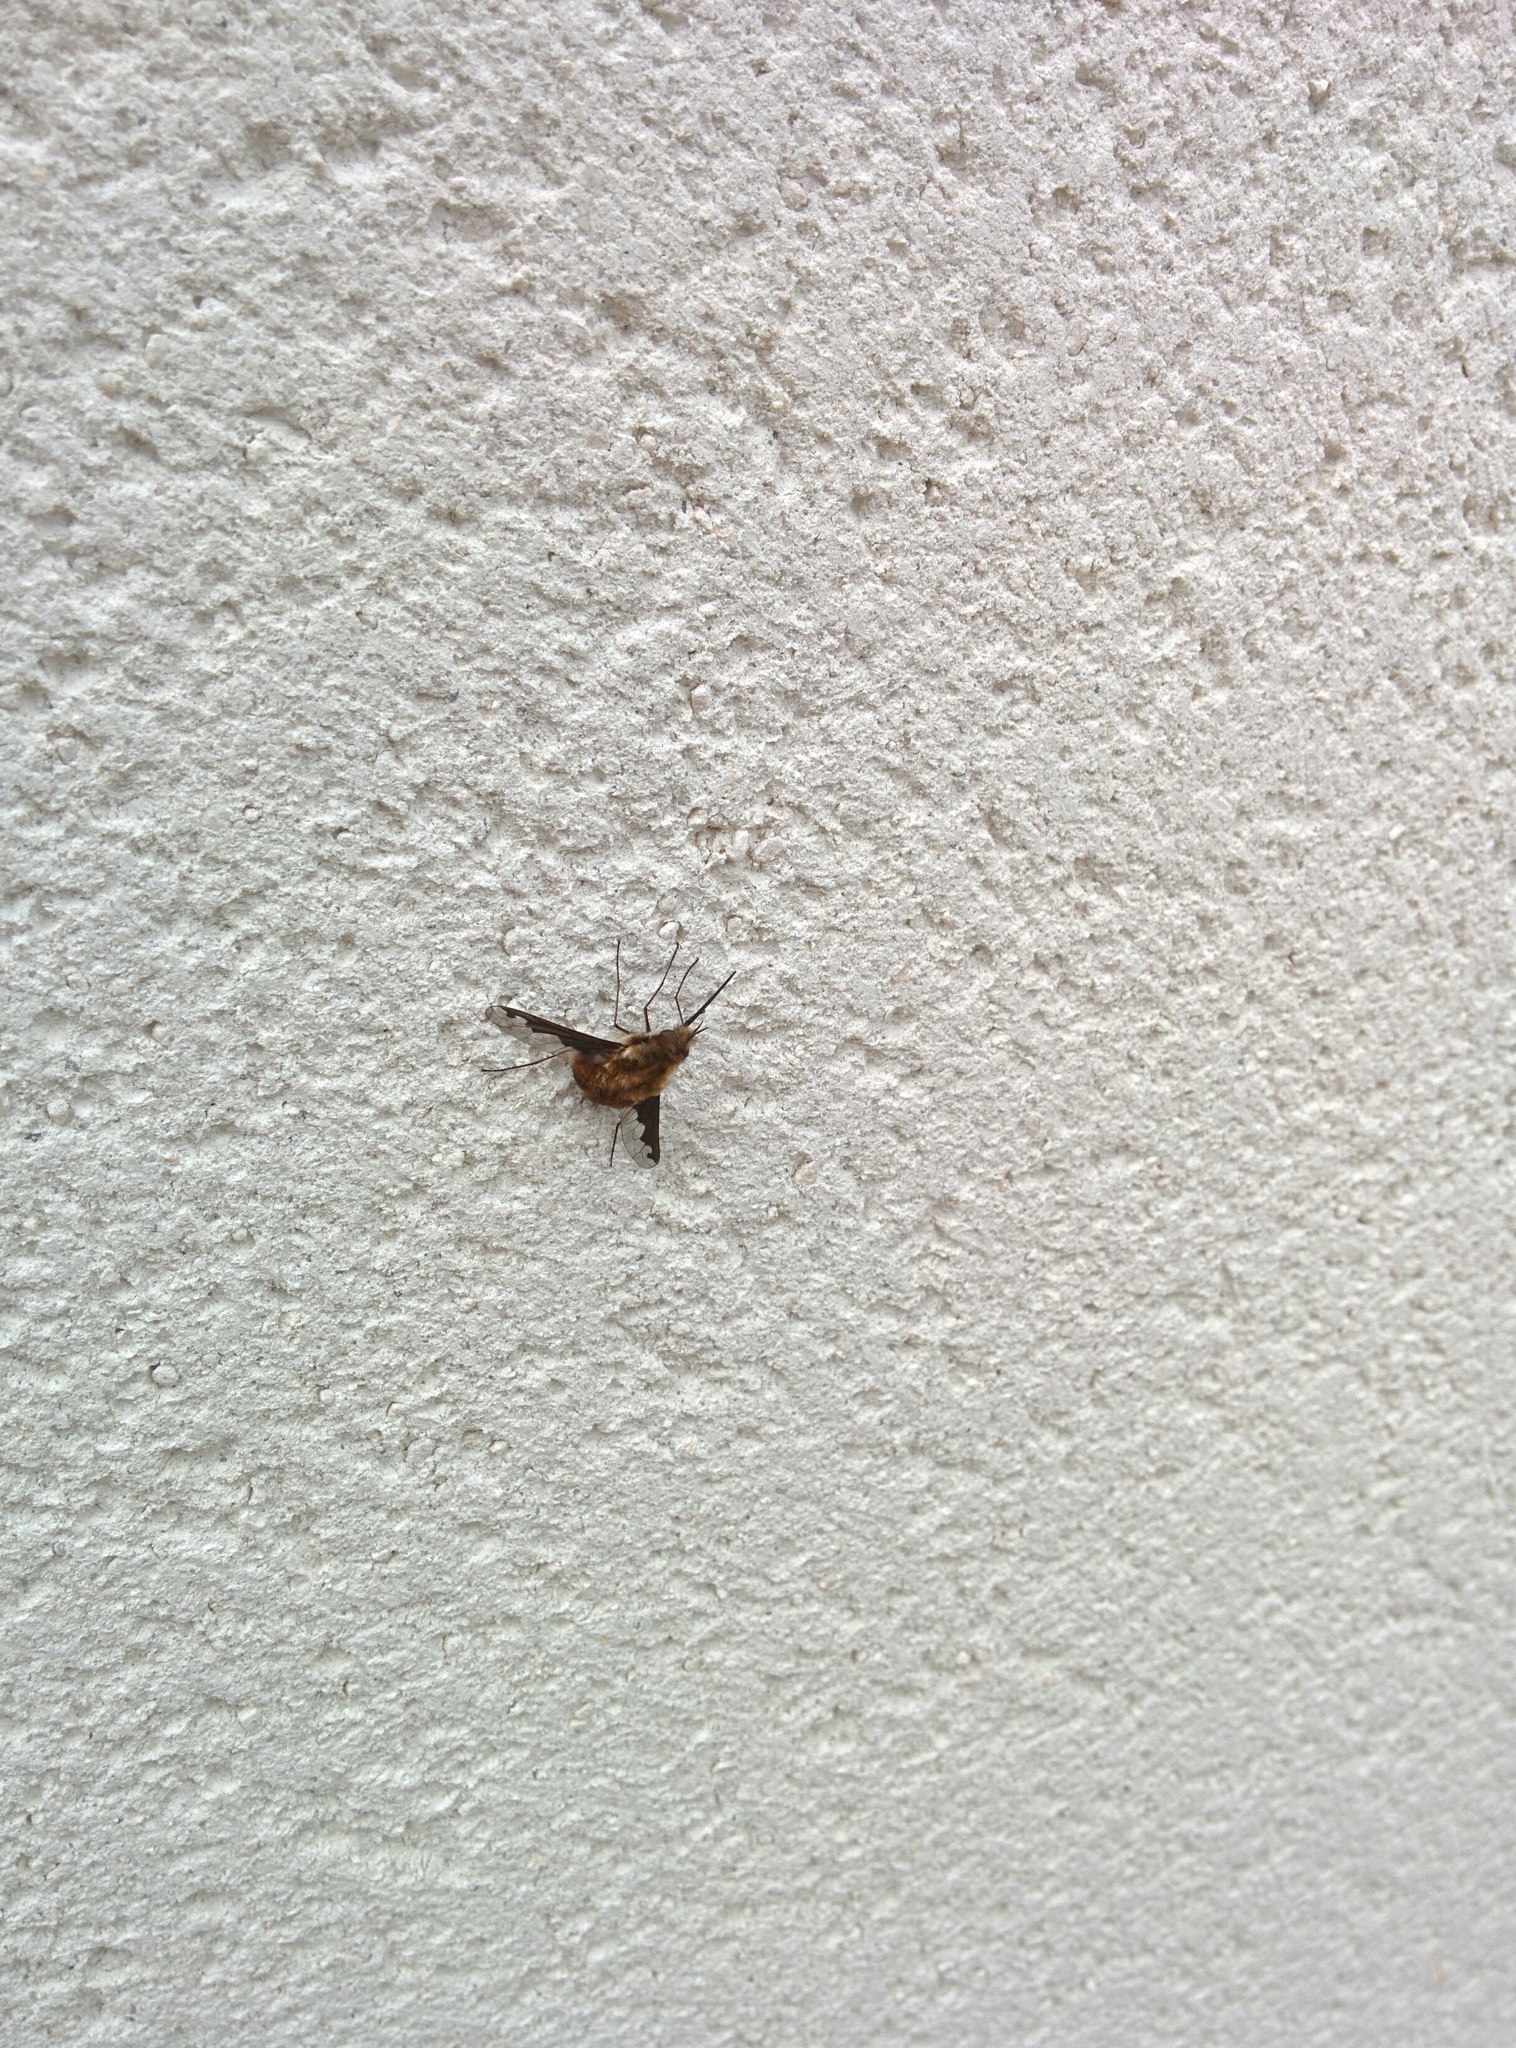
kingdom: Animalia
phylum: Arthropoda
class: Insecta
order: Diptera
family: Bombyliidae
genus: Bombylius
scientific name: Bombylius major
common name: Bee fly
